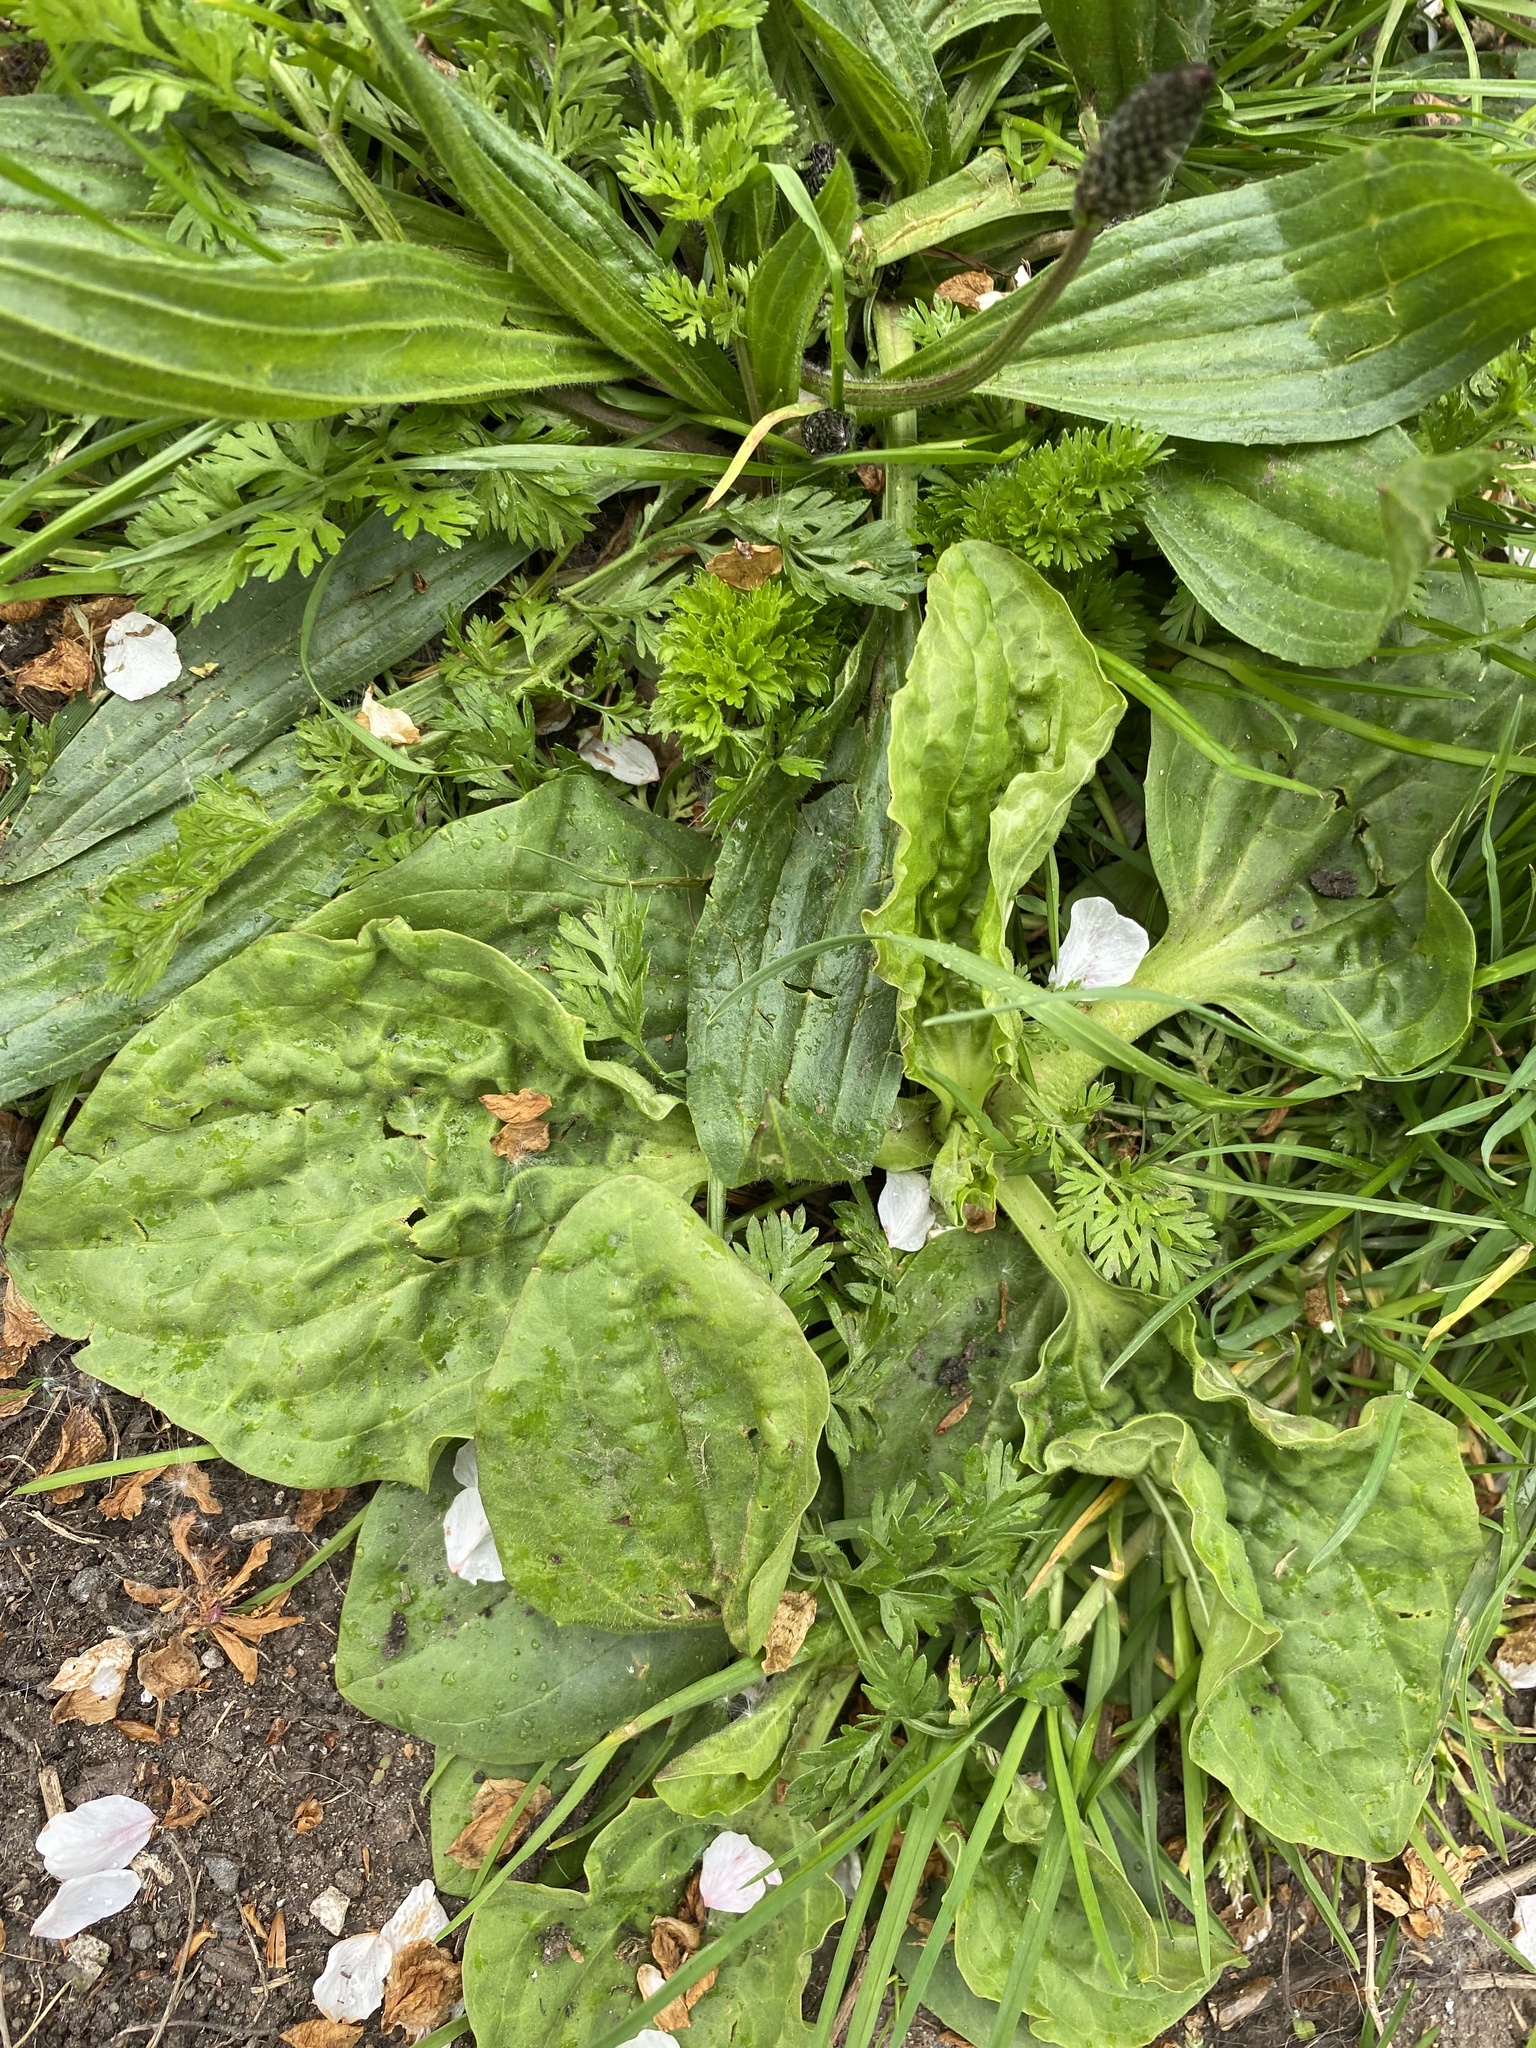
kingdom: Plantae
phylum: Tracheophyta
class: Magnoliopsida
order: Lamiales
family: Plantaginaceae
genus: Plantago
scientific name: Plantago major
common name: Common plantain
